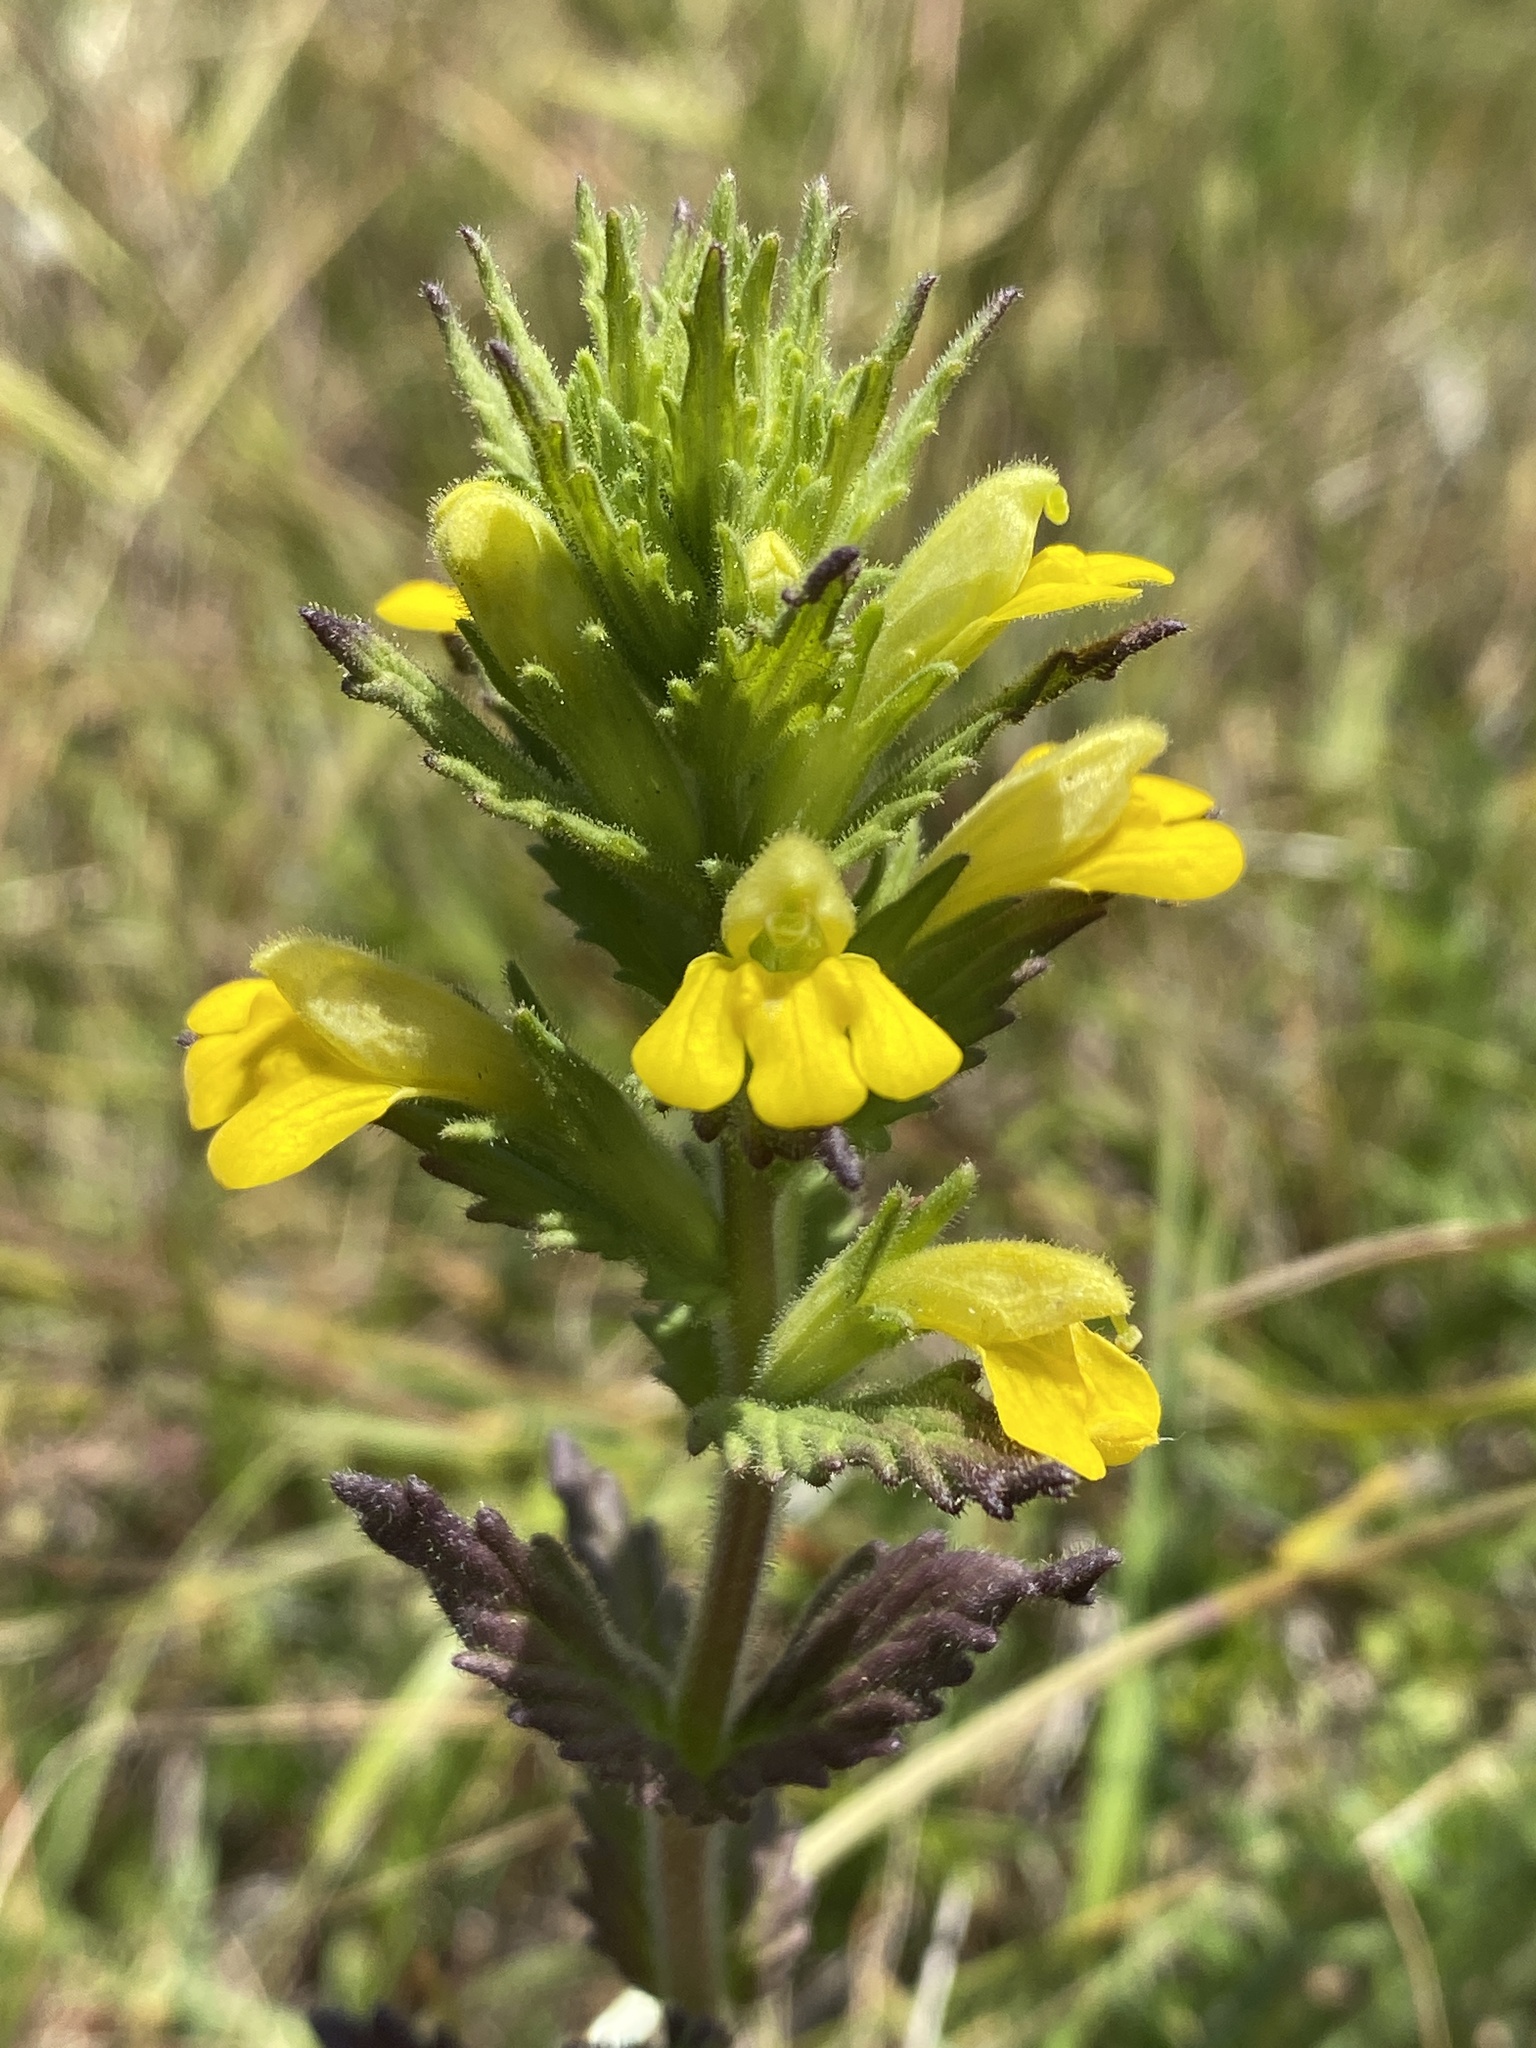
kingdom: Plantae
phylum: Tracheophyta
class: Magnoliopsida
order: Lamiales
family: Orobanchaceae
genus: Bellardia
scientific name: Bellardia viscosa
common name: Sticky parentucellia
